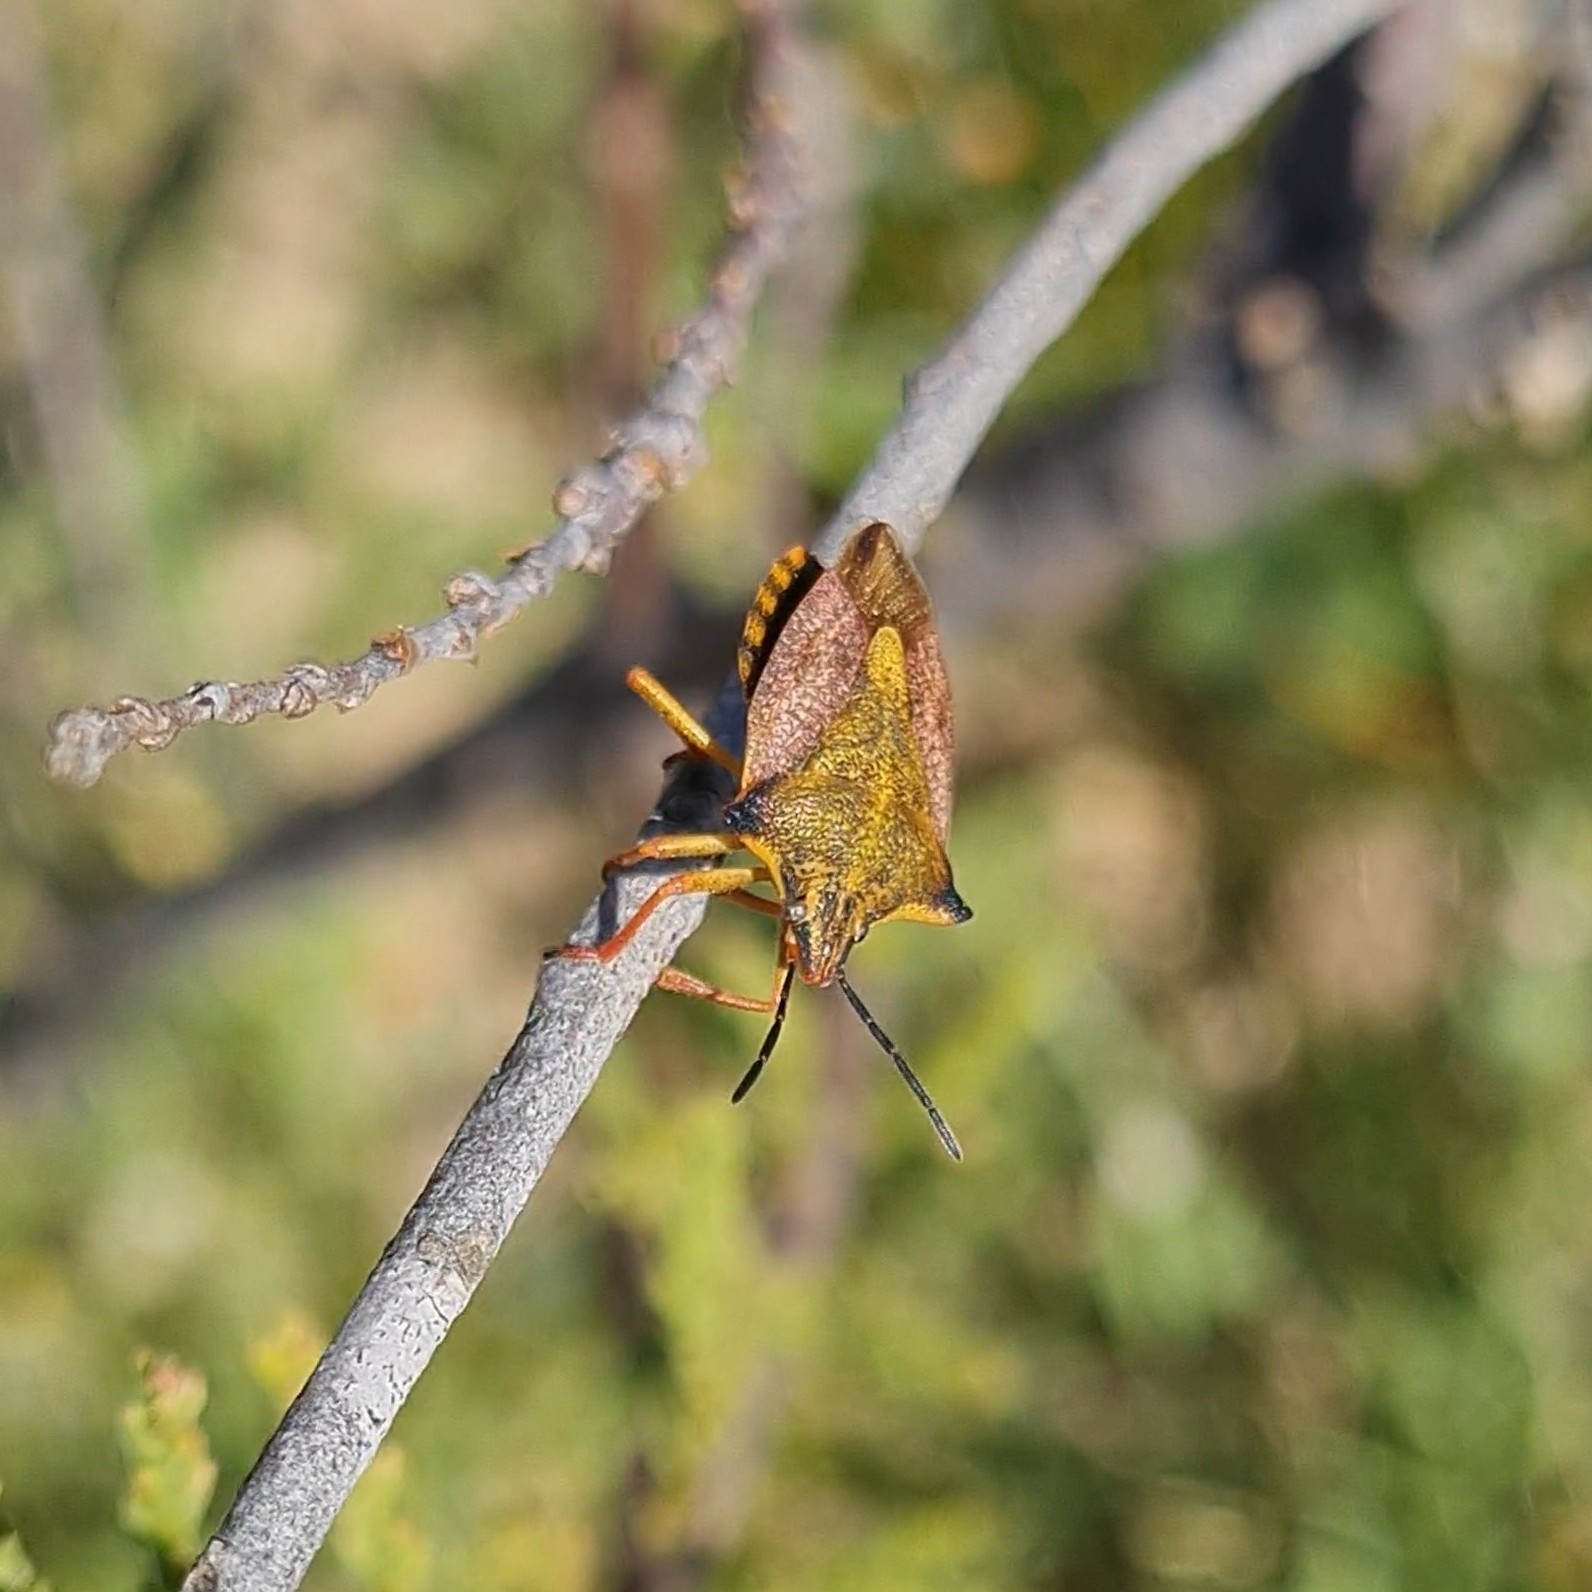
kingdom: Animalia
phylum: Arthropoda
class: Insecta
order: Hemiptera
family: Pentatomidae
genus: Carpocoris
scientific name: Carpocoris mediterraneus
